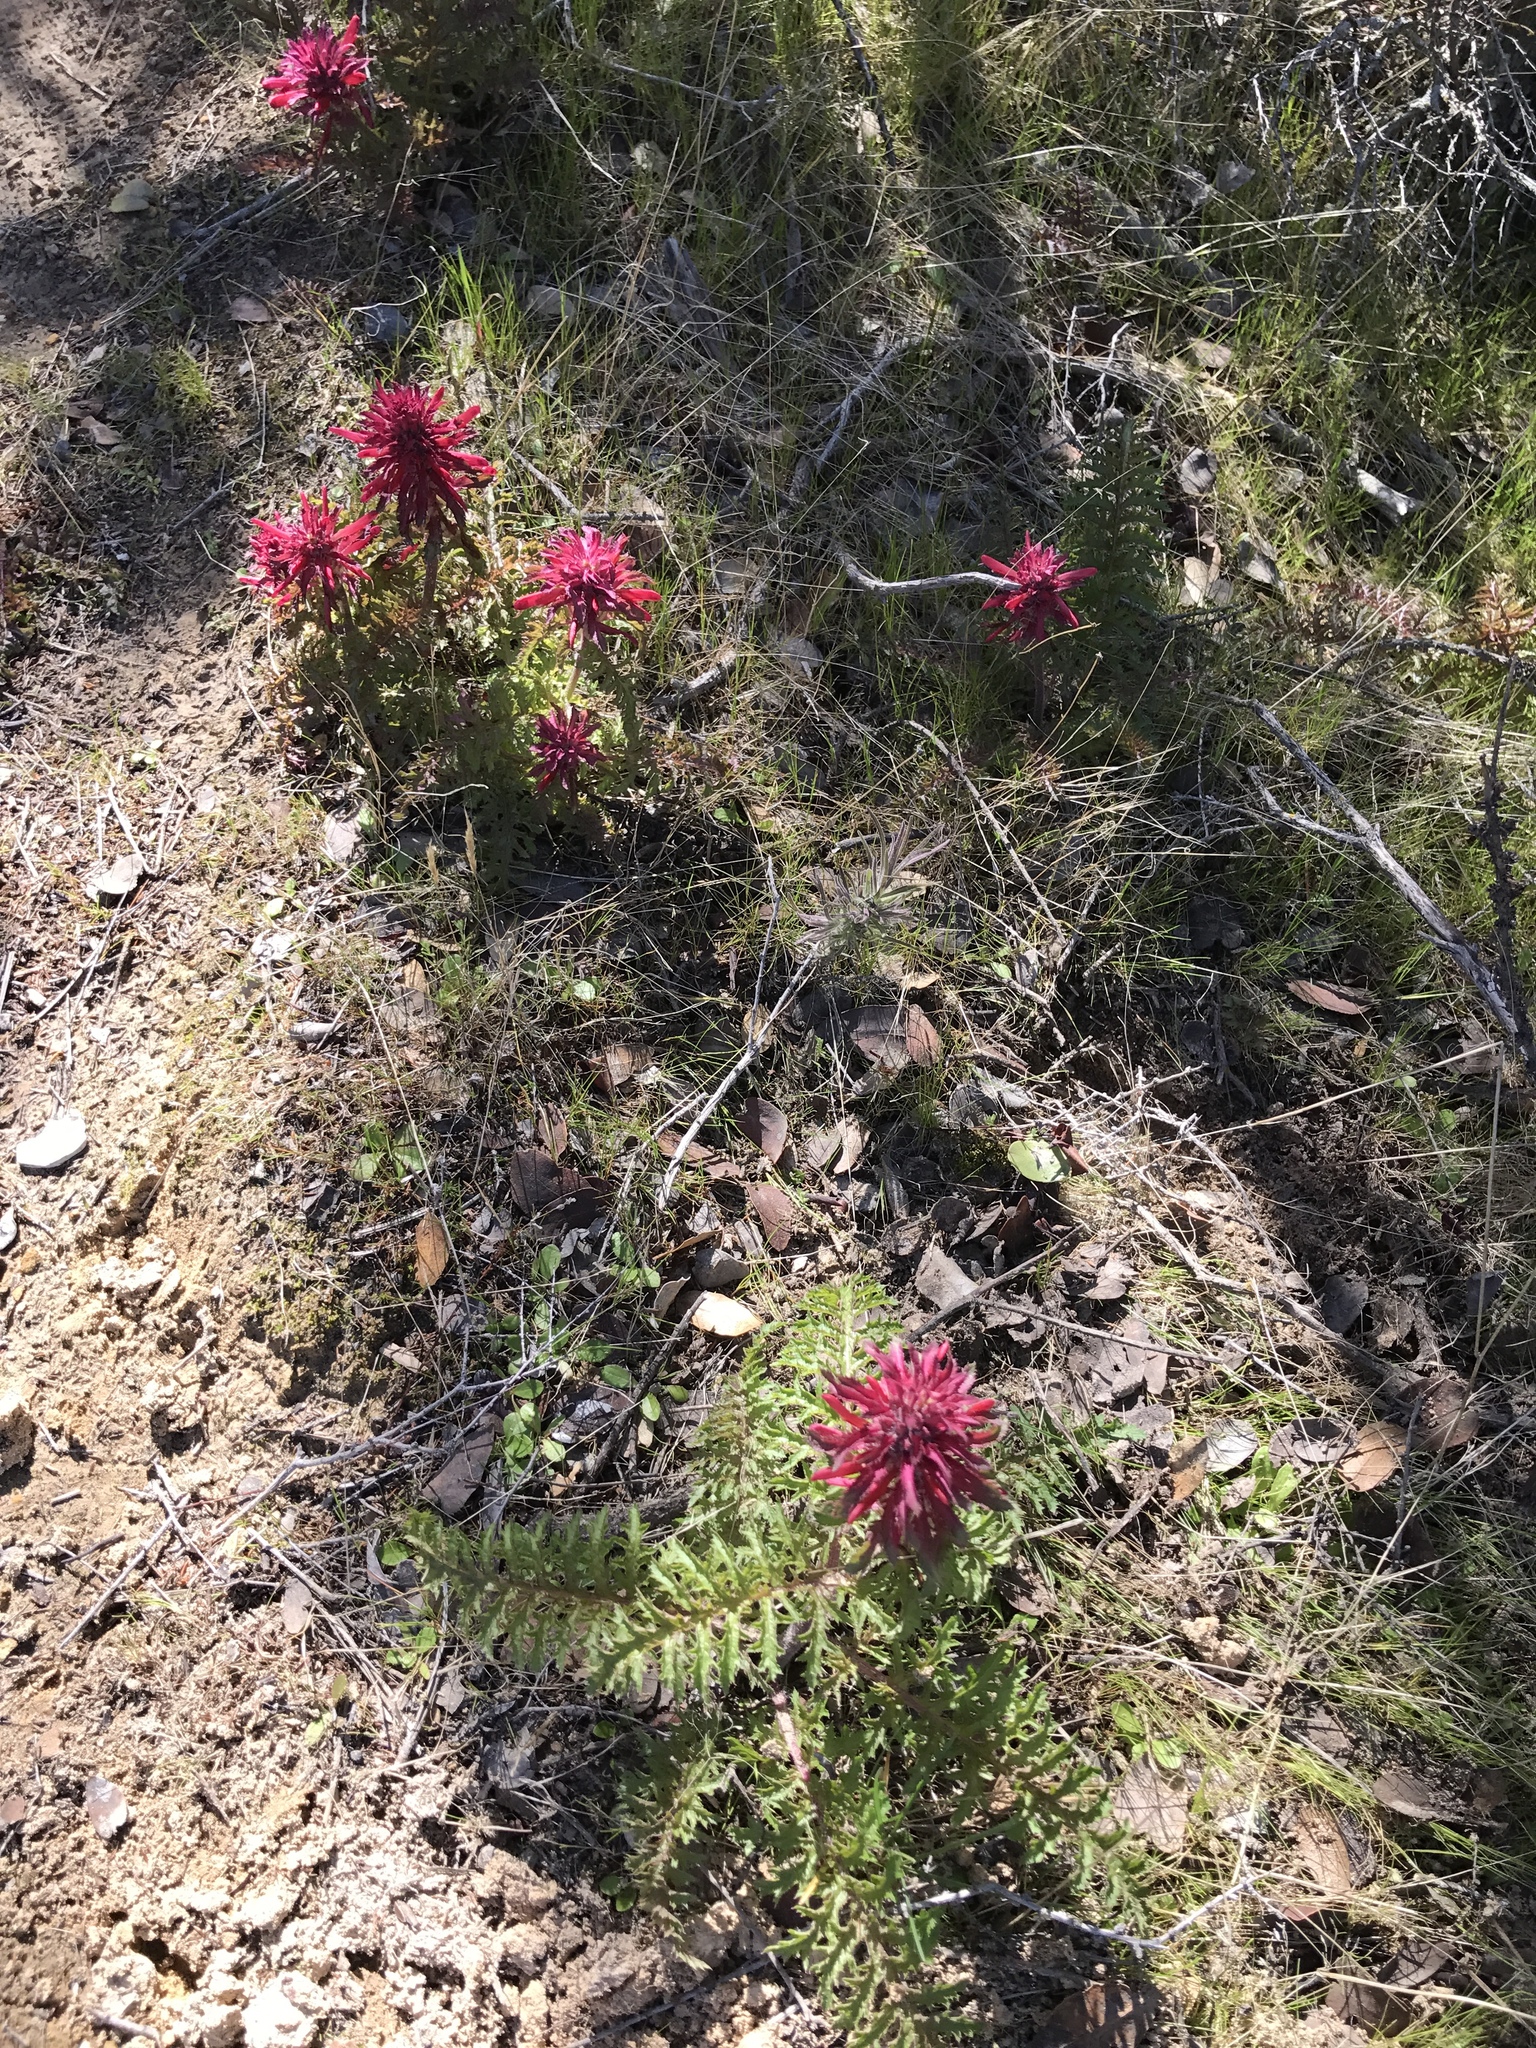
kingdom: Plantae
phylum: Tracheophyta
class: Magnoliopsida
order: Lamiales
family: Orobanchaceae
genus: Pedicularis
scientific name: Pedicularis densiflora
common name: Indian warrior
